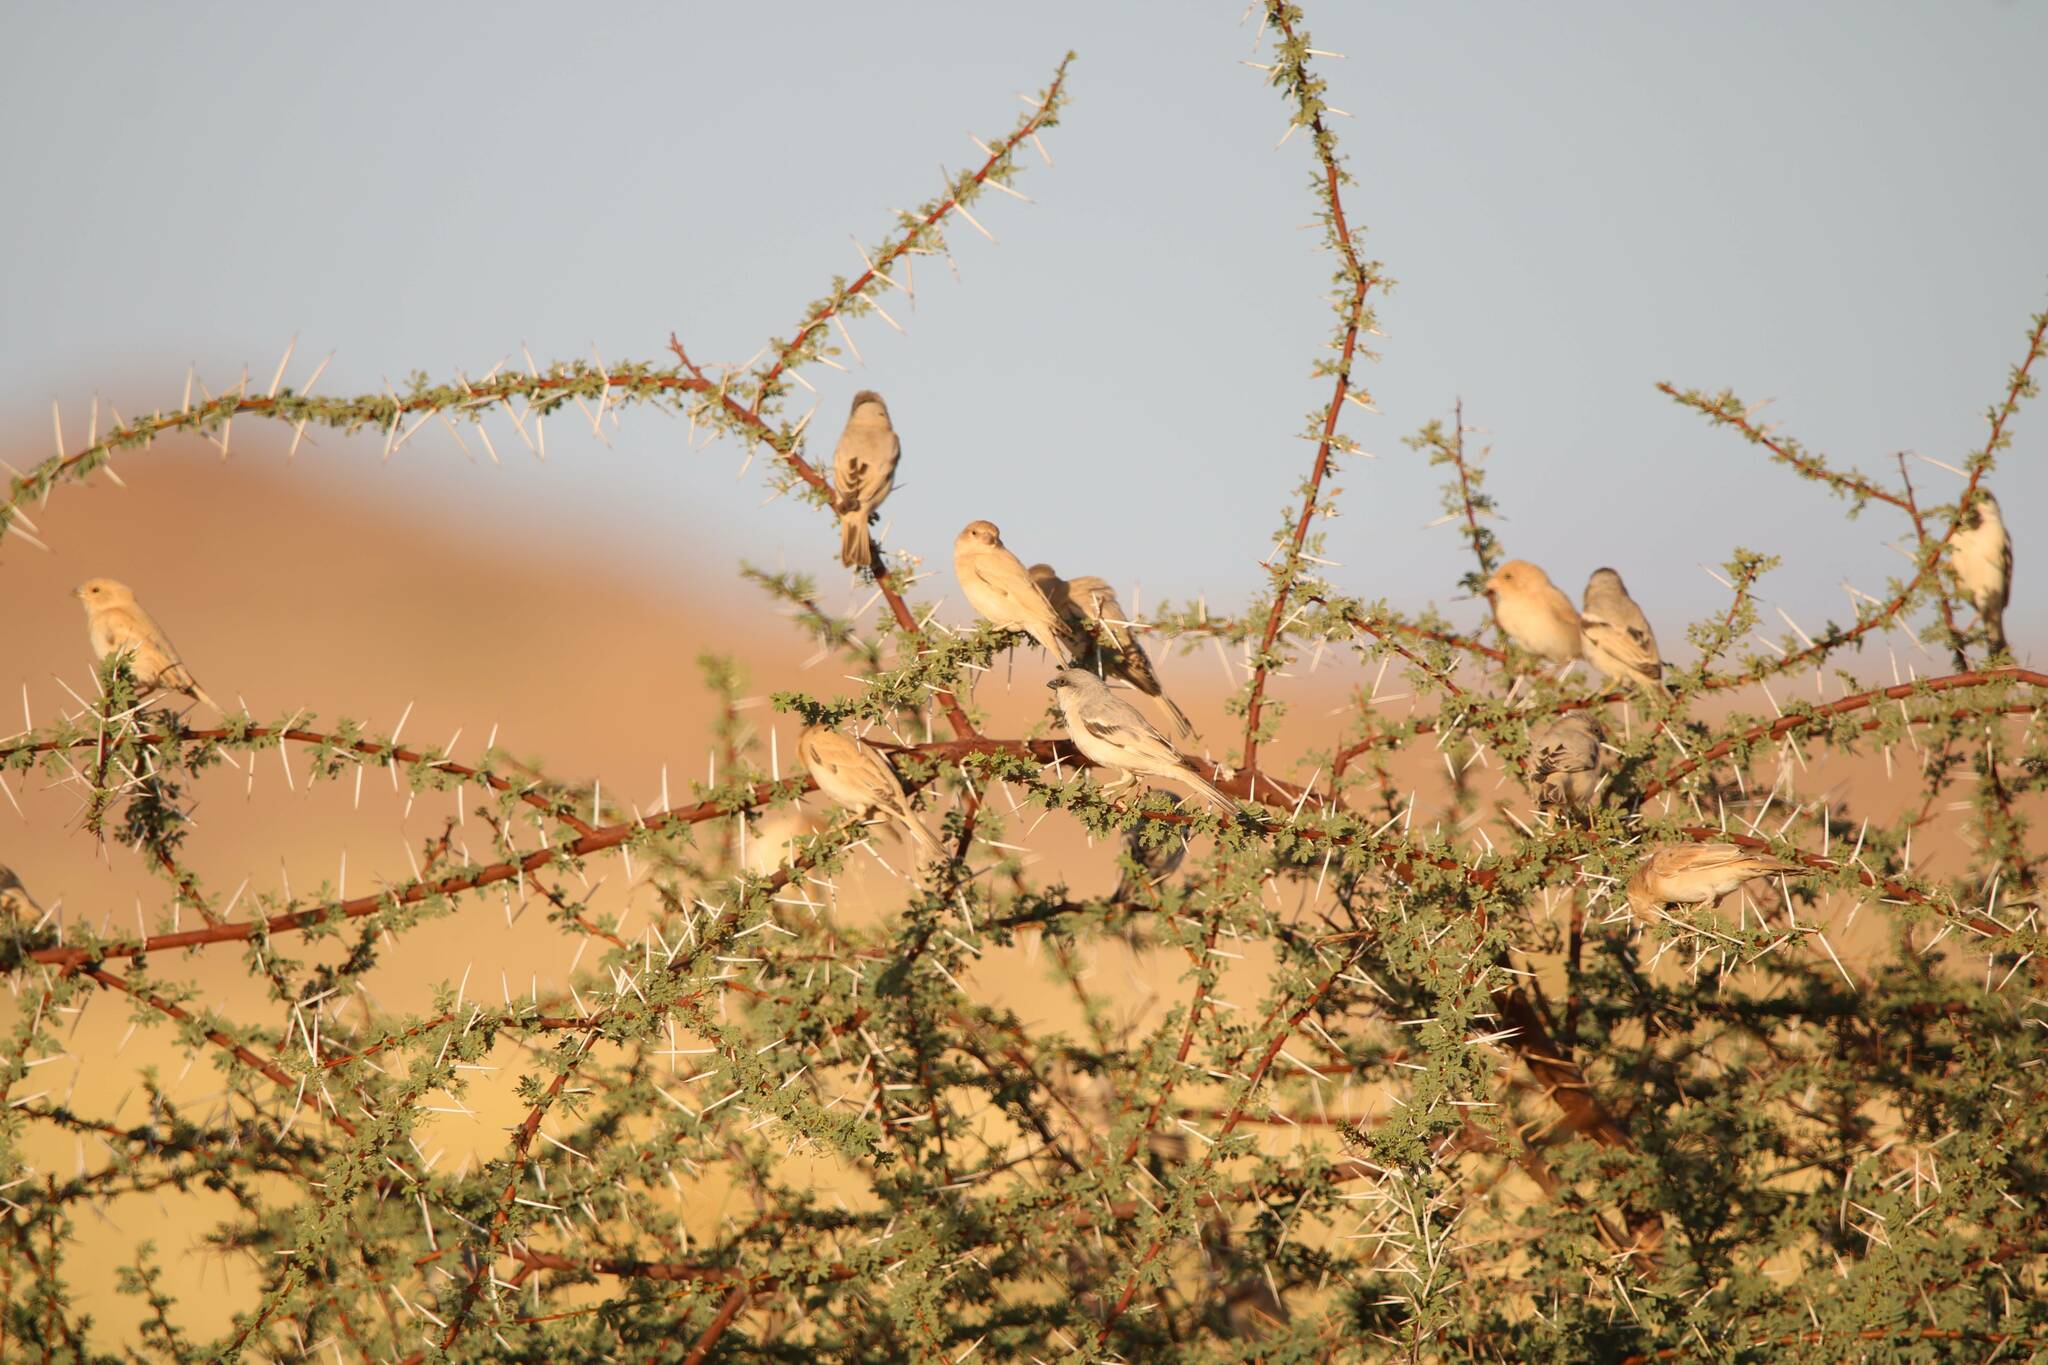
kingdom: Animalia
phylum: Chordata
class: Aves
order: Passeriformes
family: Passeridae
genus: Passer
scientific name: Passer simplex
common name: Desert sparrow
